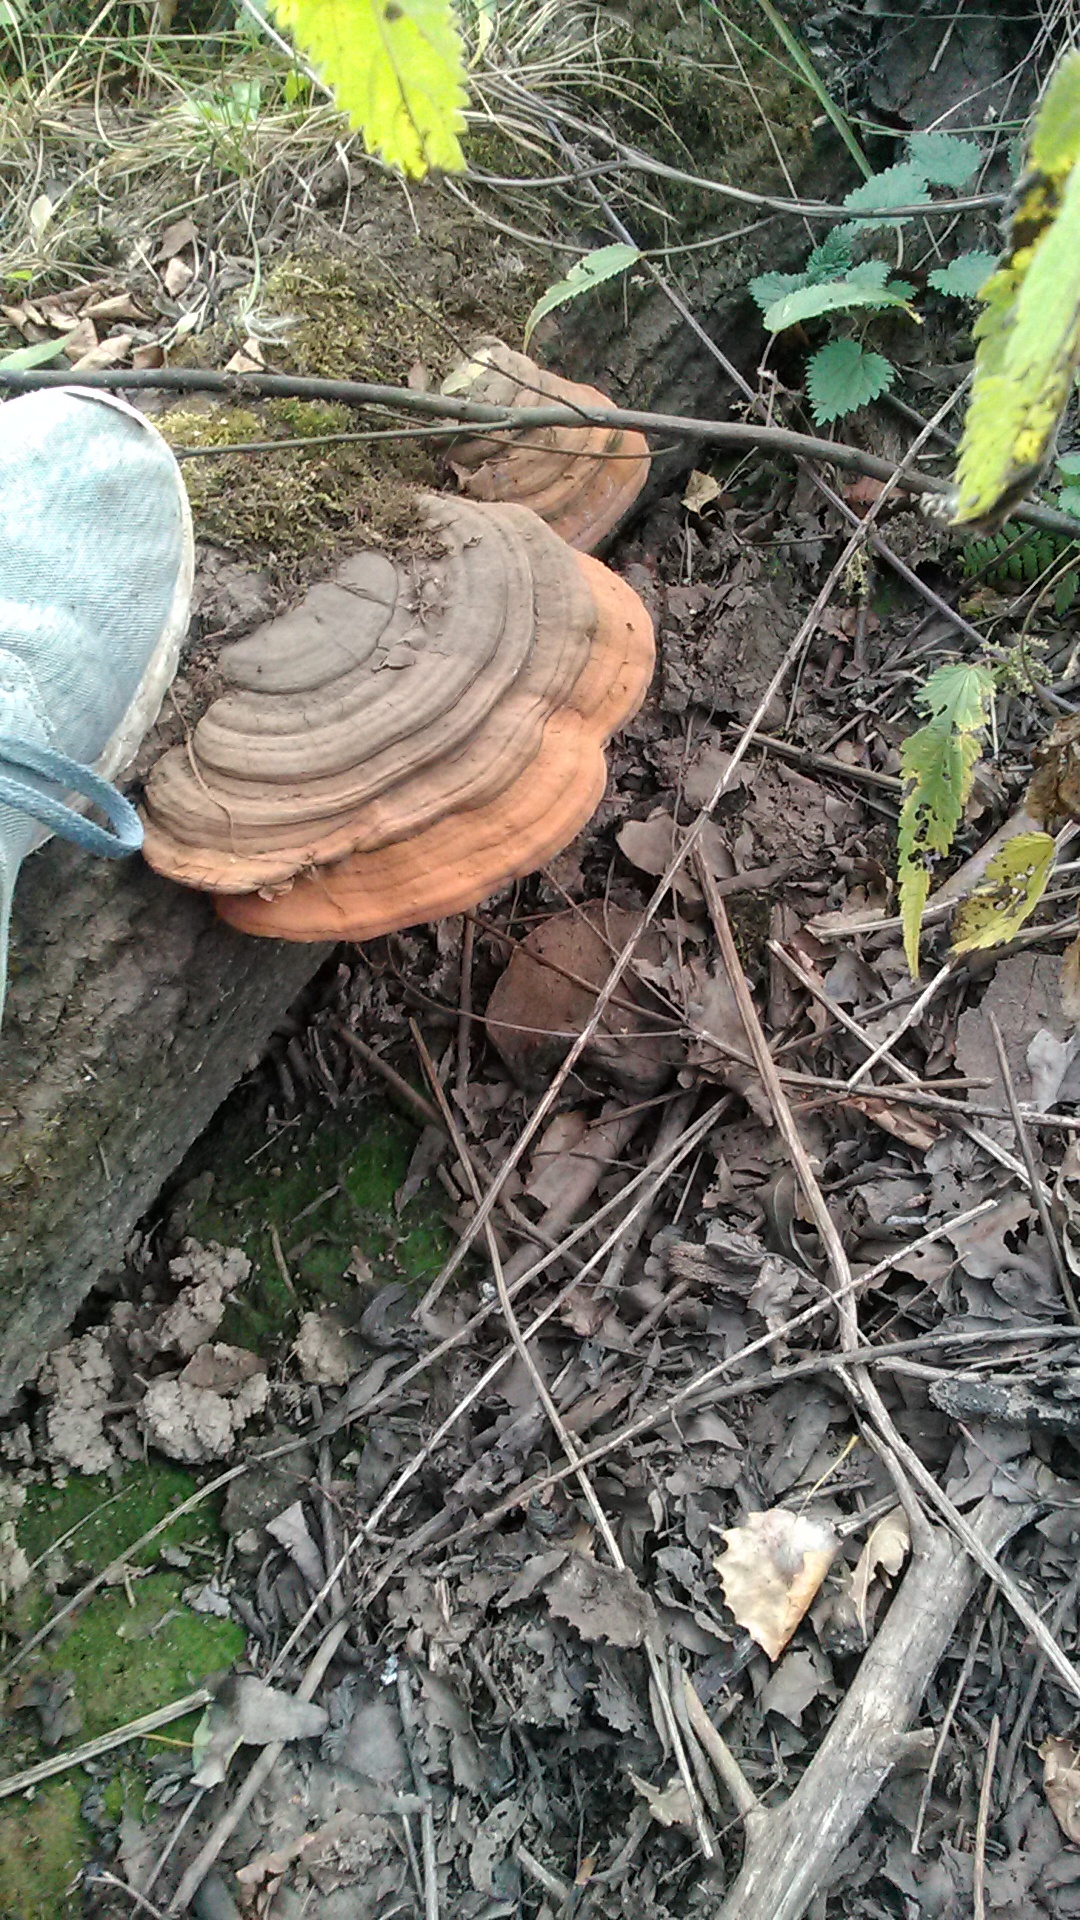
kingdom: Fungi
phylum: Basidiomycota
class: Agaricomycetes
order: Polyporales
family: Polyporaceae
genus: Ganoderma
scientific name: Ganoderma applanatum
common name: Artist's bracket
